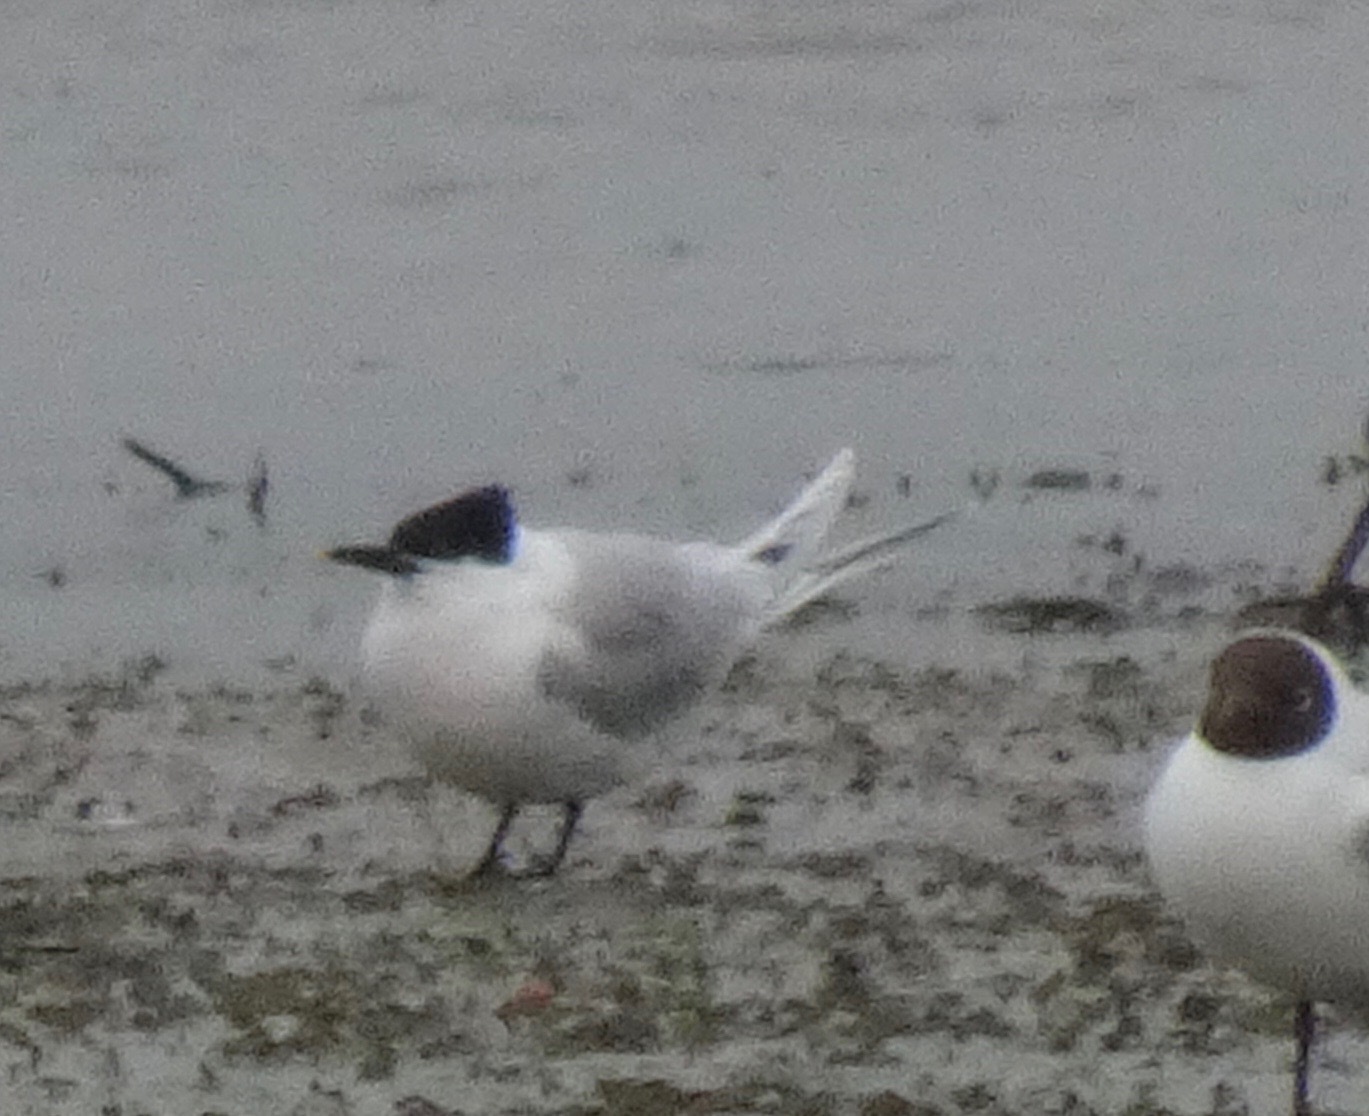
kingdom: Animalia
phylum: Chordata
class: Aves
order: Charadriiformes
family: Laridae
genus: Thalasseus
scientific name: Thalasseus sandvicensis
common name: Sandwich tern
